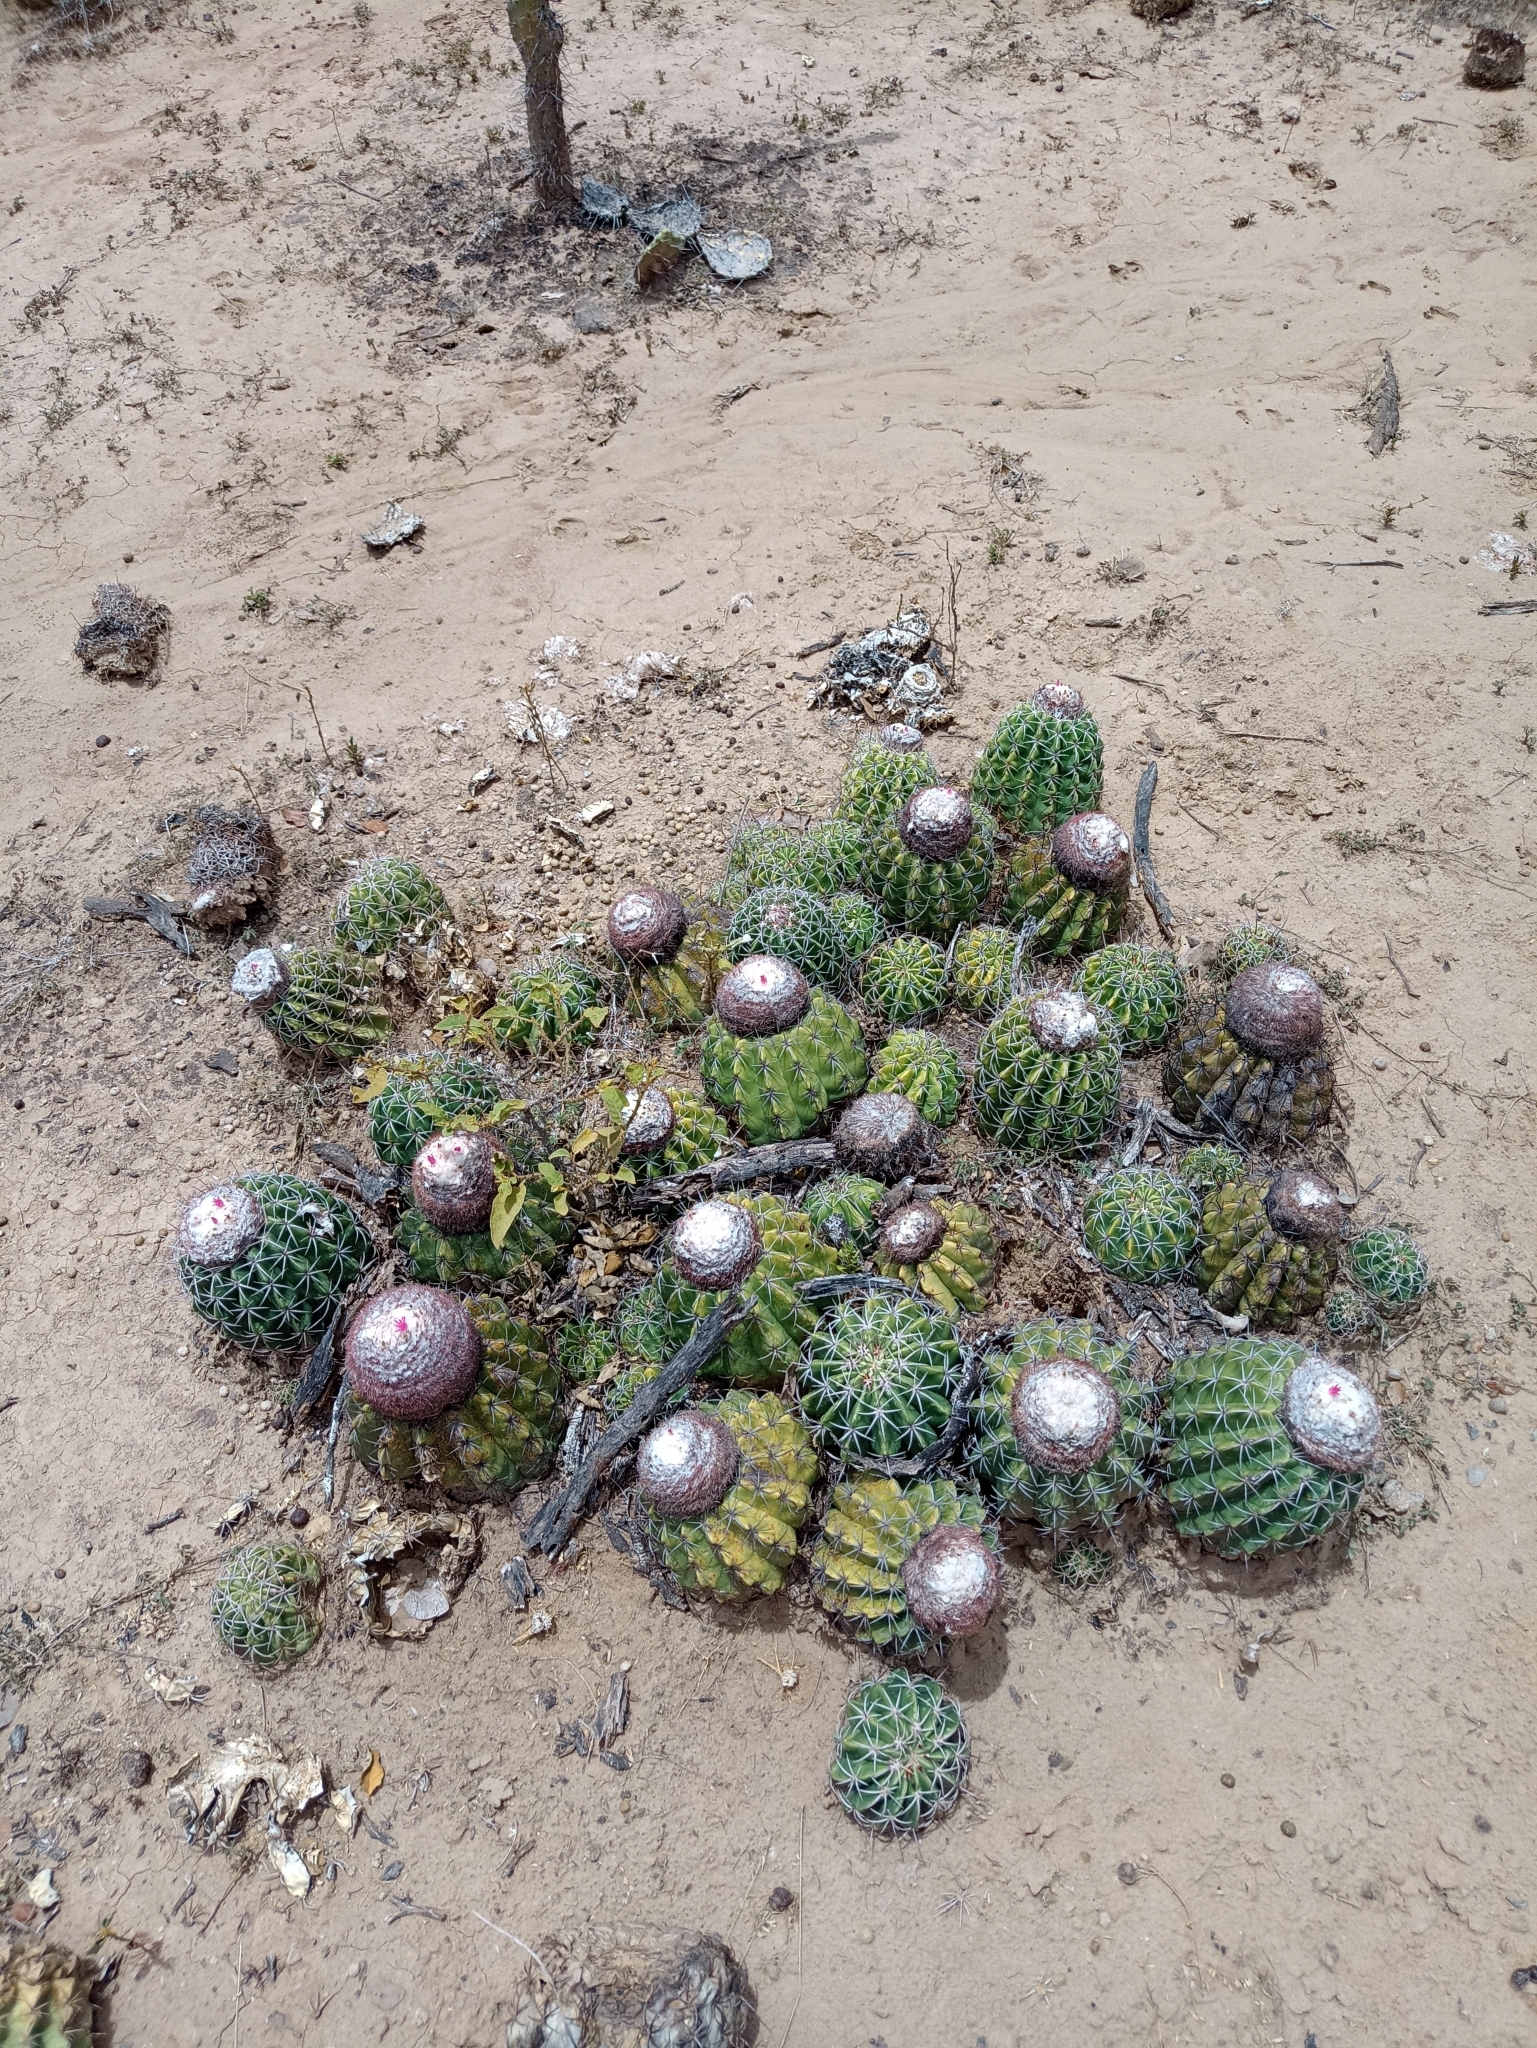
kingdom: Plantae
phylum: Tracheophyta
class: Magnoliopsida
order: Caryophyllales
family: Cactaceae
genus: Melocactus
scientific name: Melocactus curvispinus
